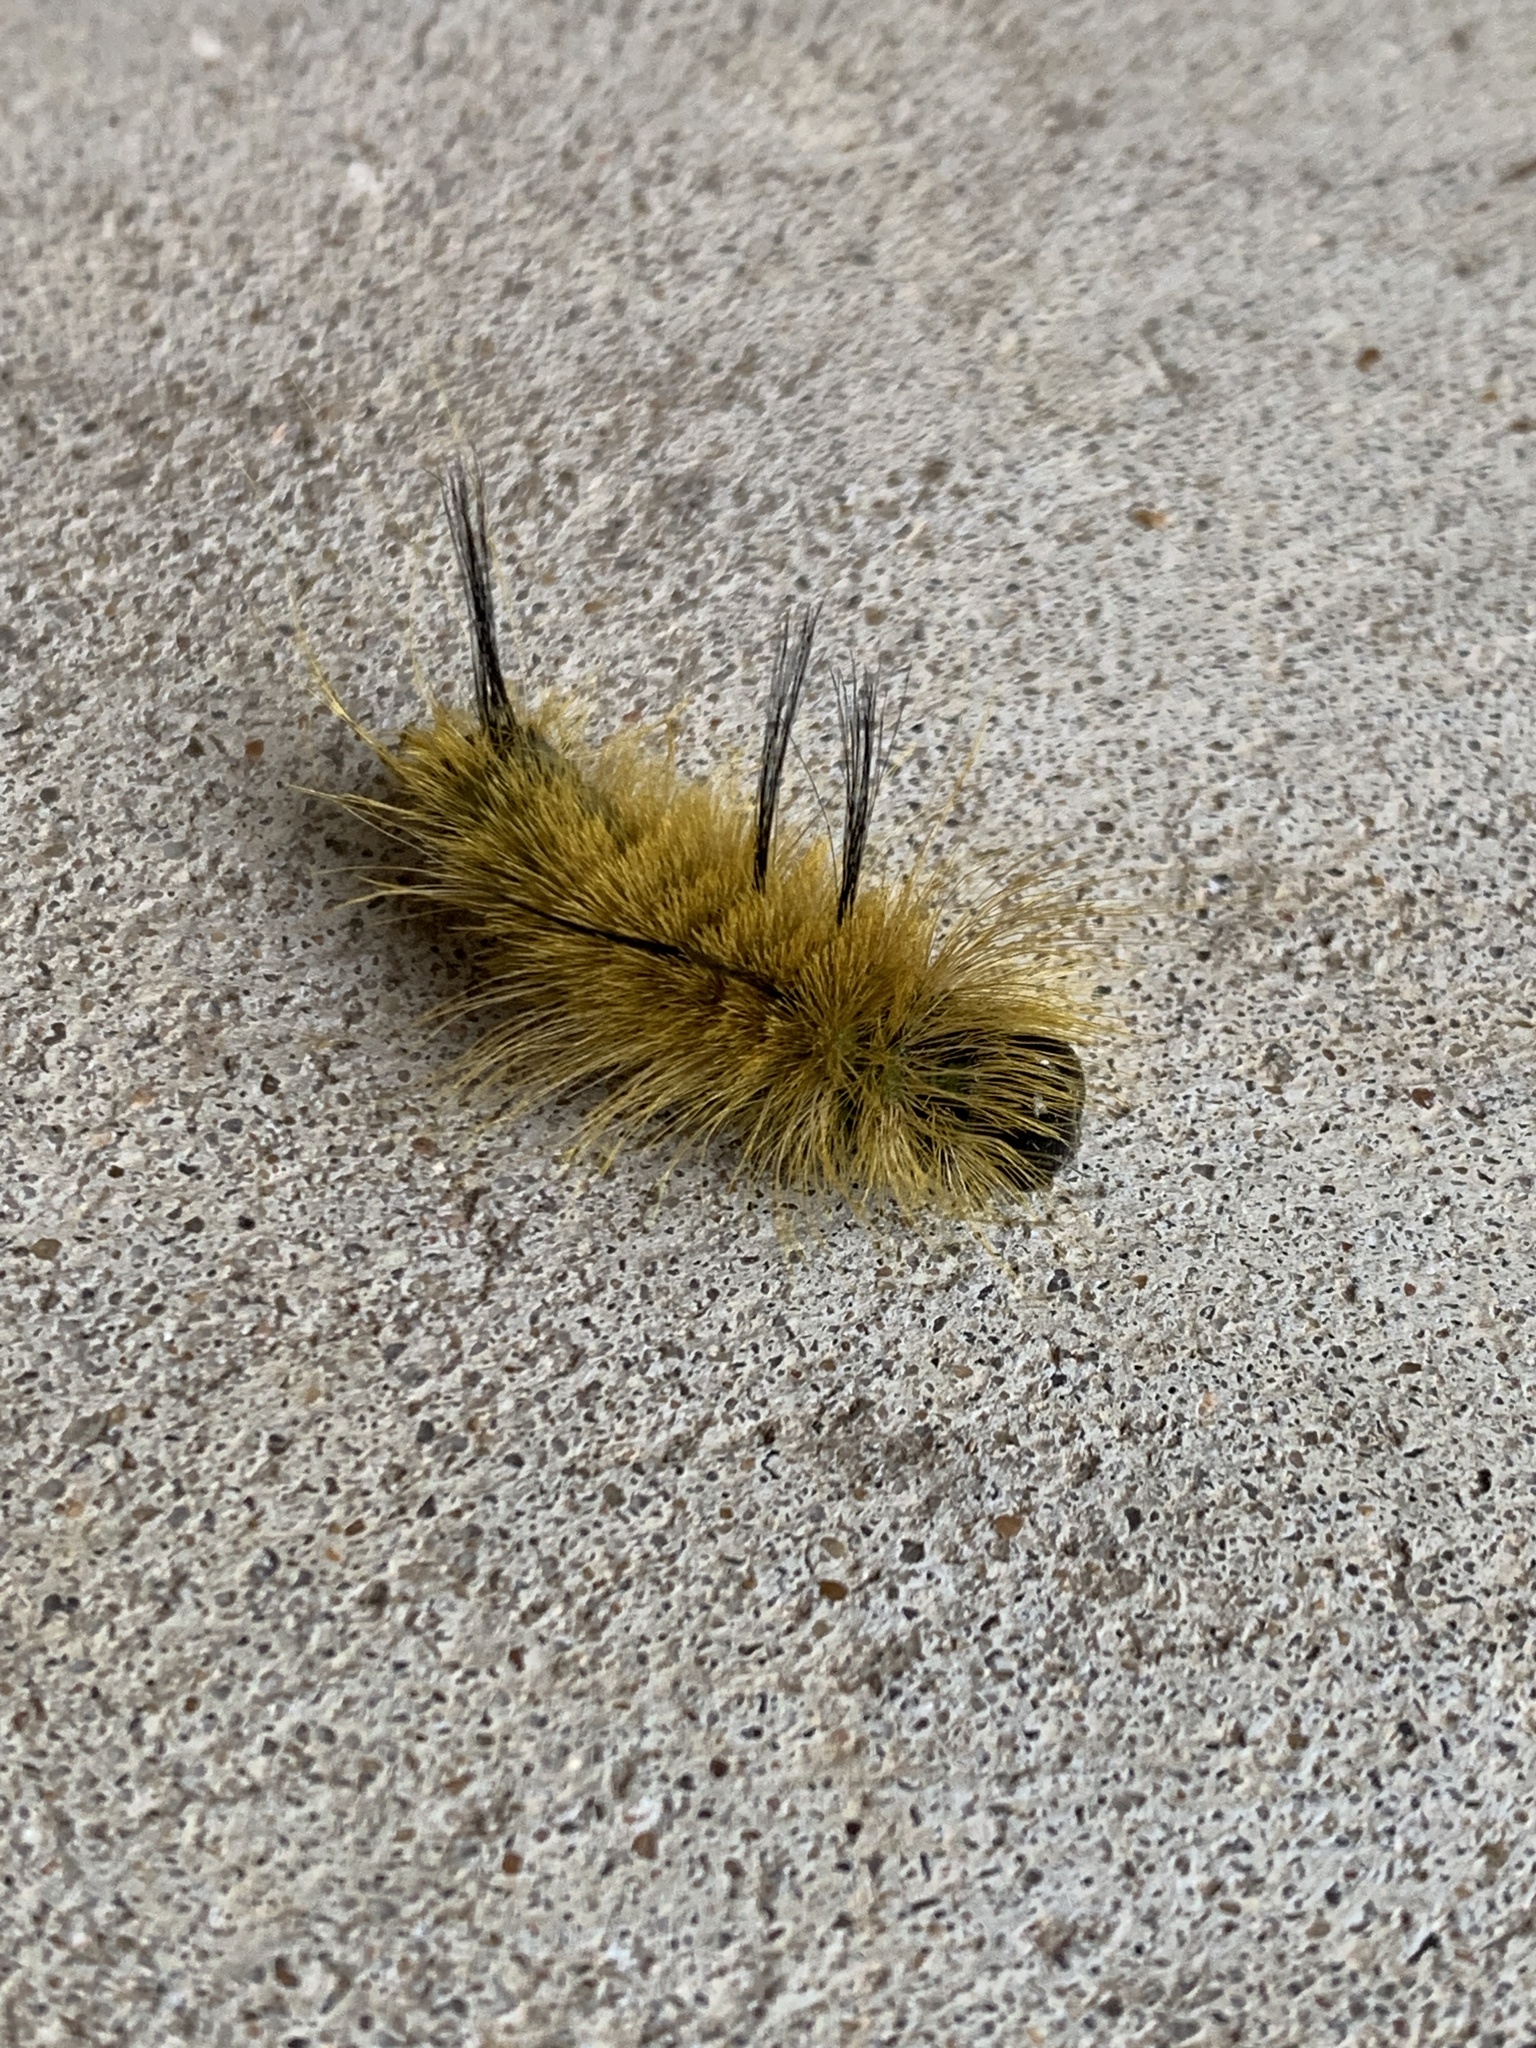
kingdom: Animalia
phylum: Arthropoda
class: Insecta
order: Lepidoptera
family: Noctuidae
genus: Acronicta
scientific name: Acronicta americana
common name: American dagger
